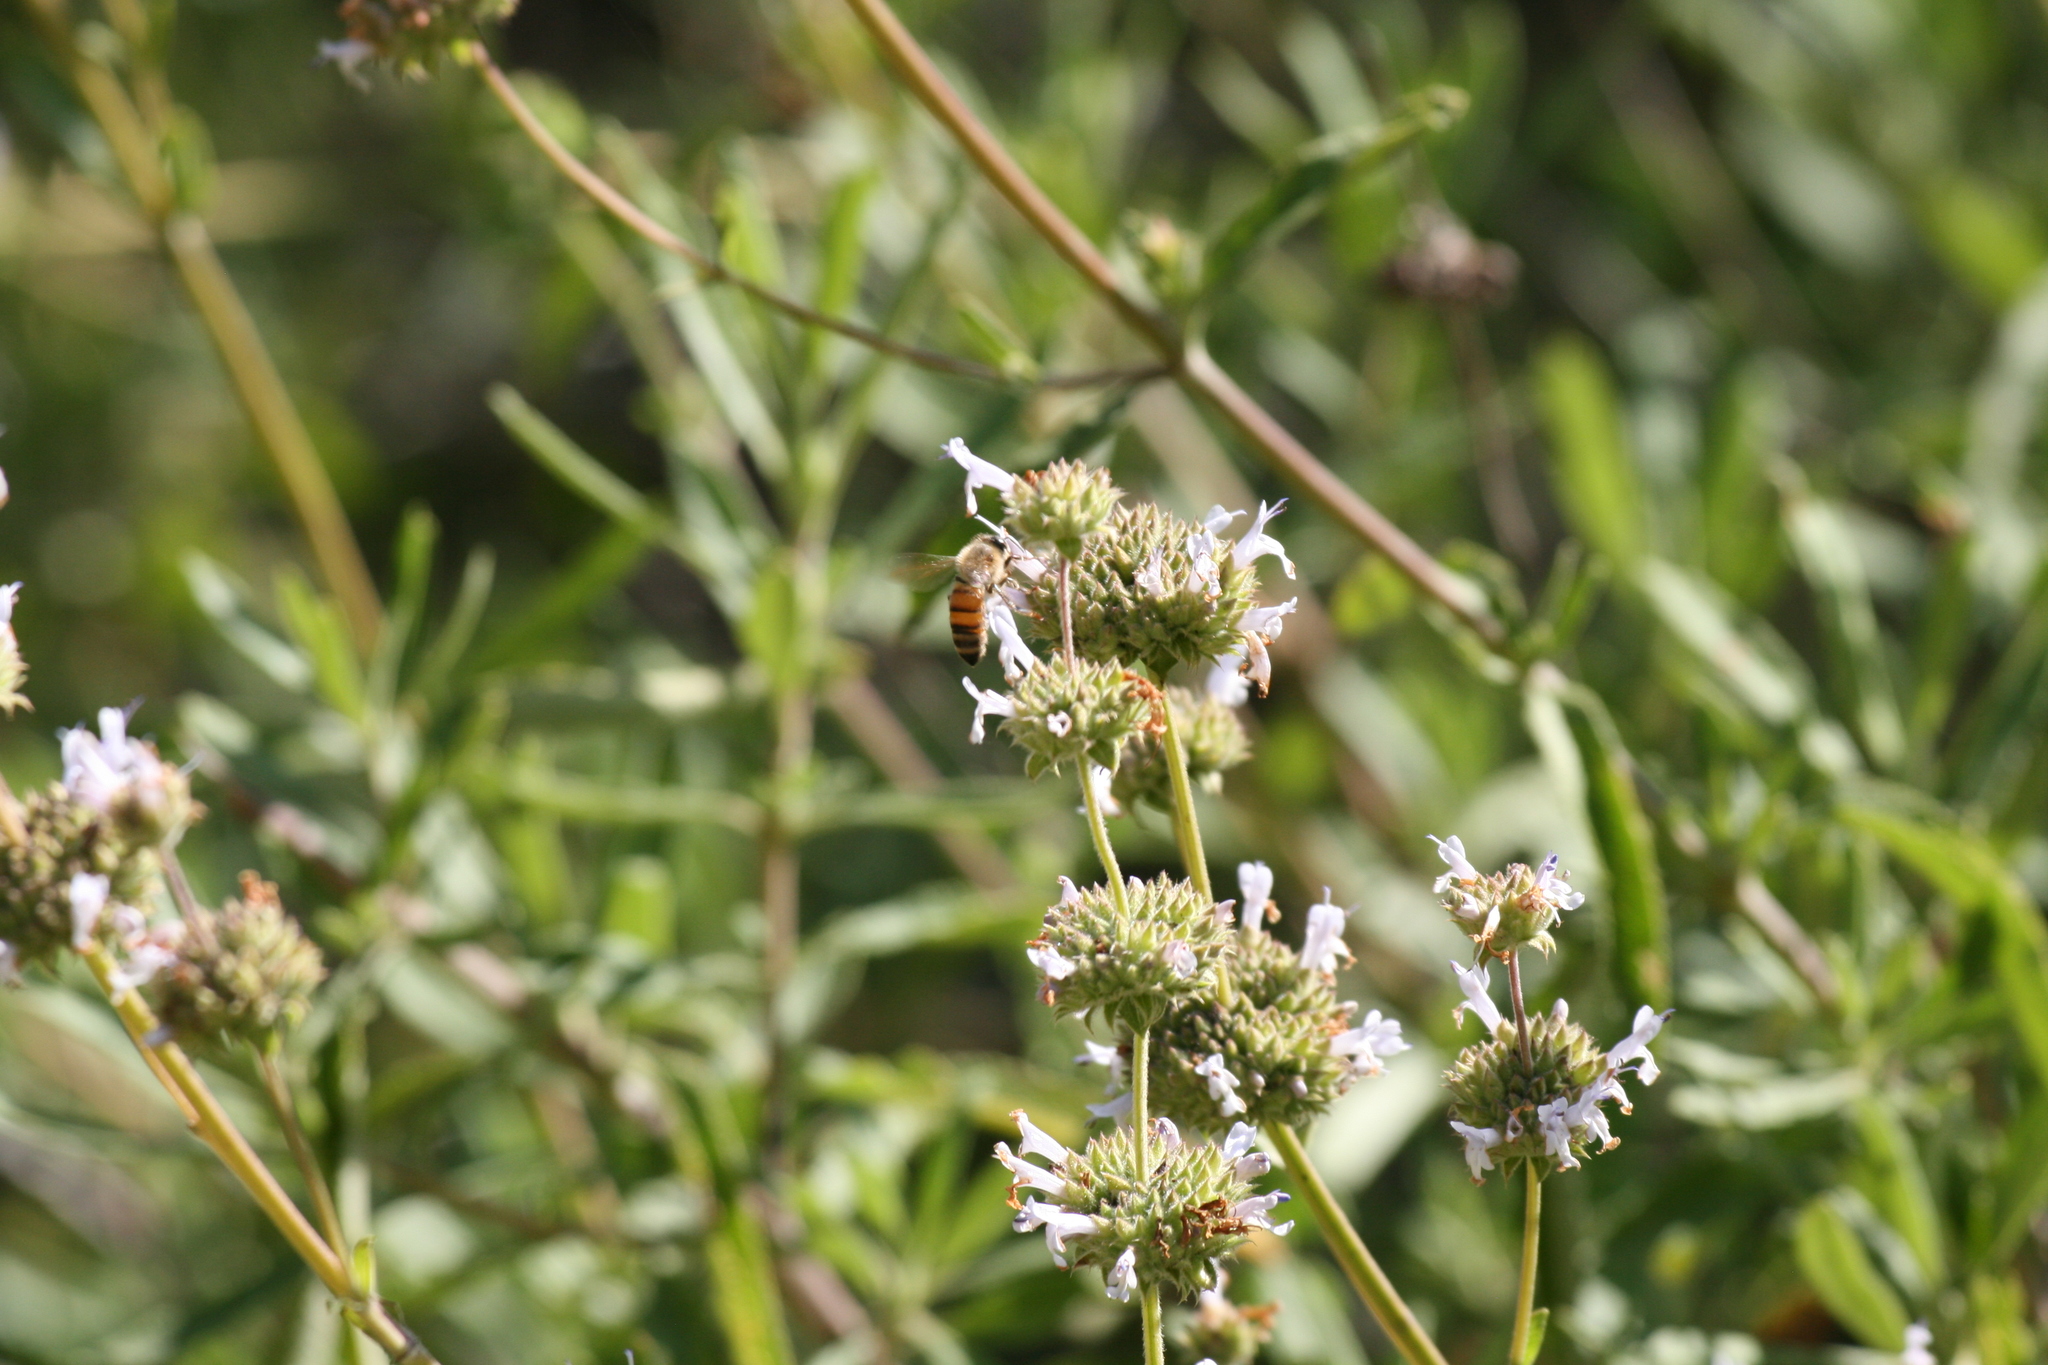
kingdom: Animalia
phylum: Arthropoda
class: Insecta
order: Hymenoptera
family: Apidae
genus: Apis
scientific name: Apis mellifera
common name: Honey bee
